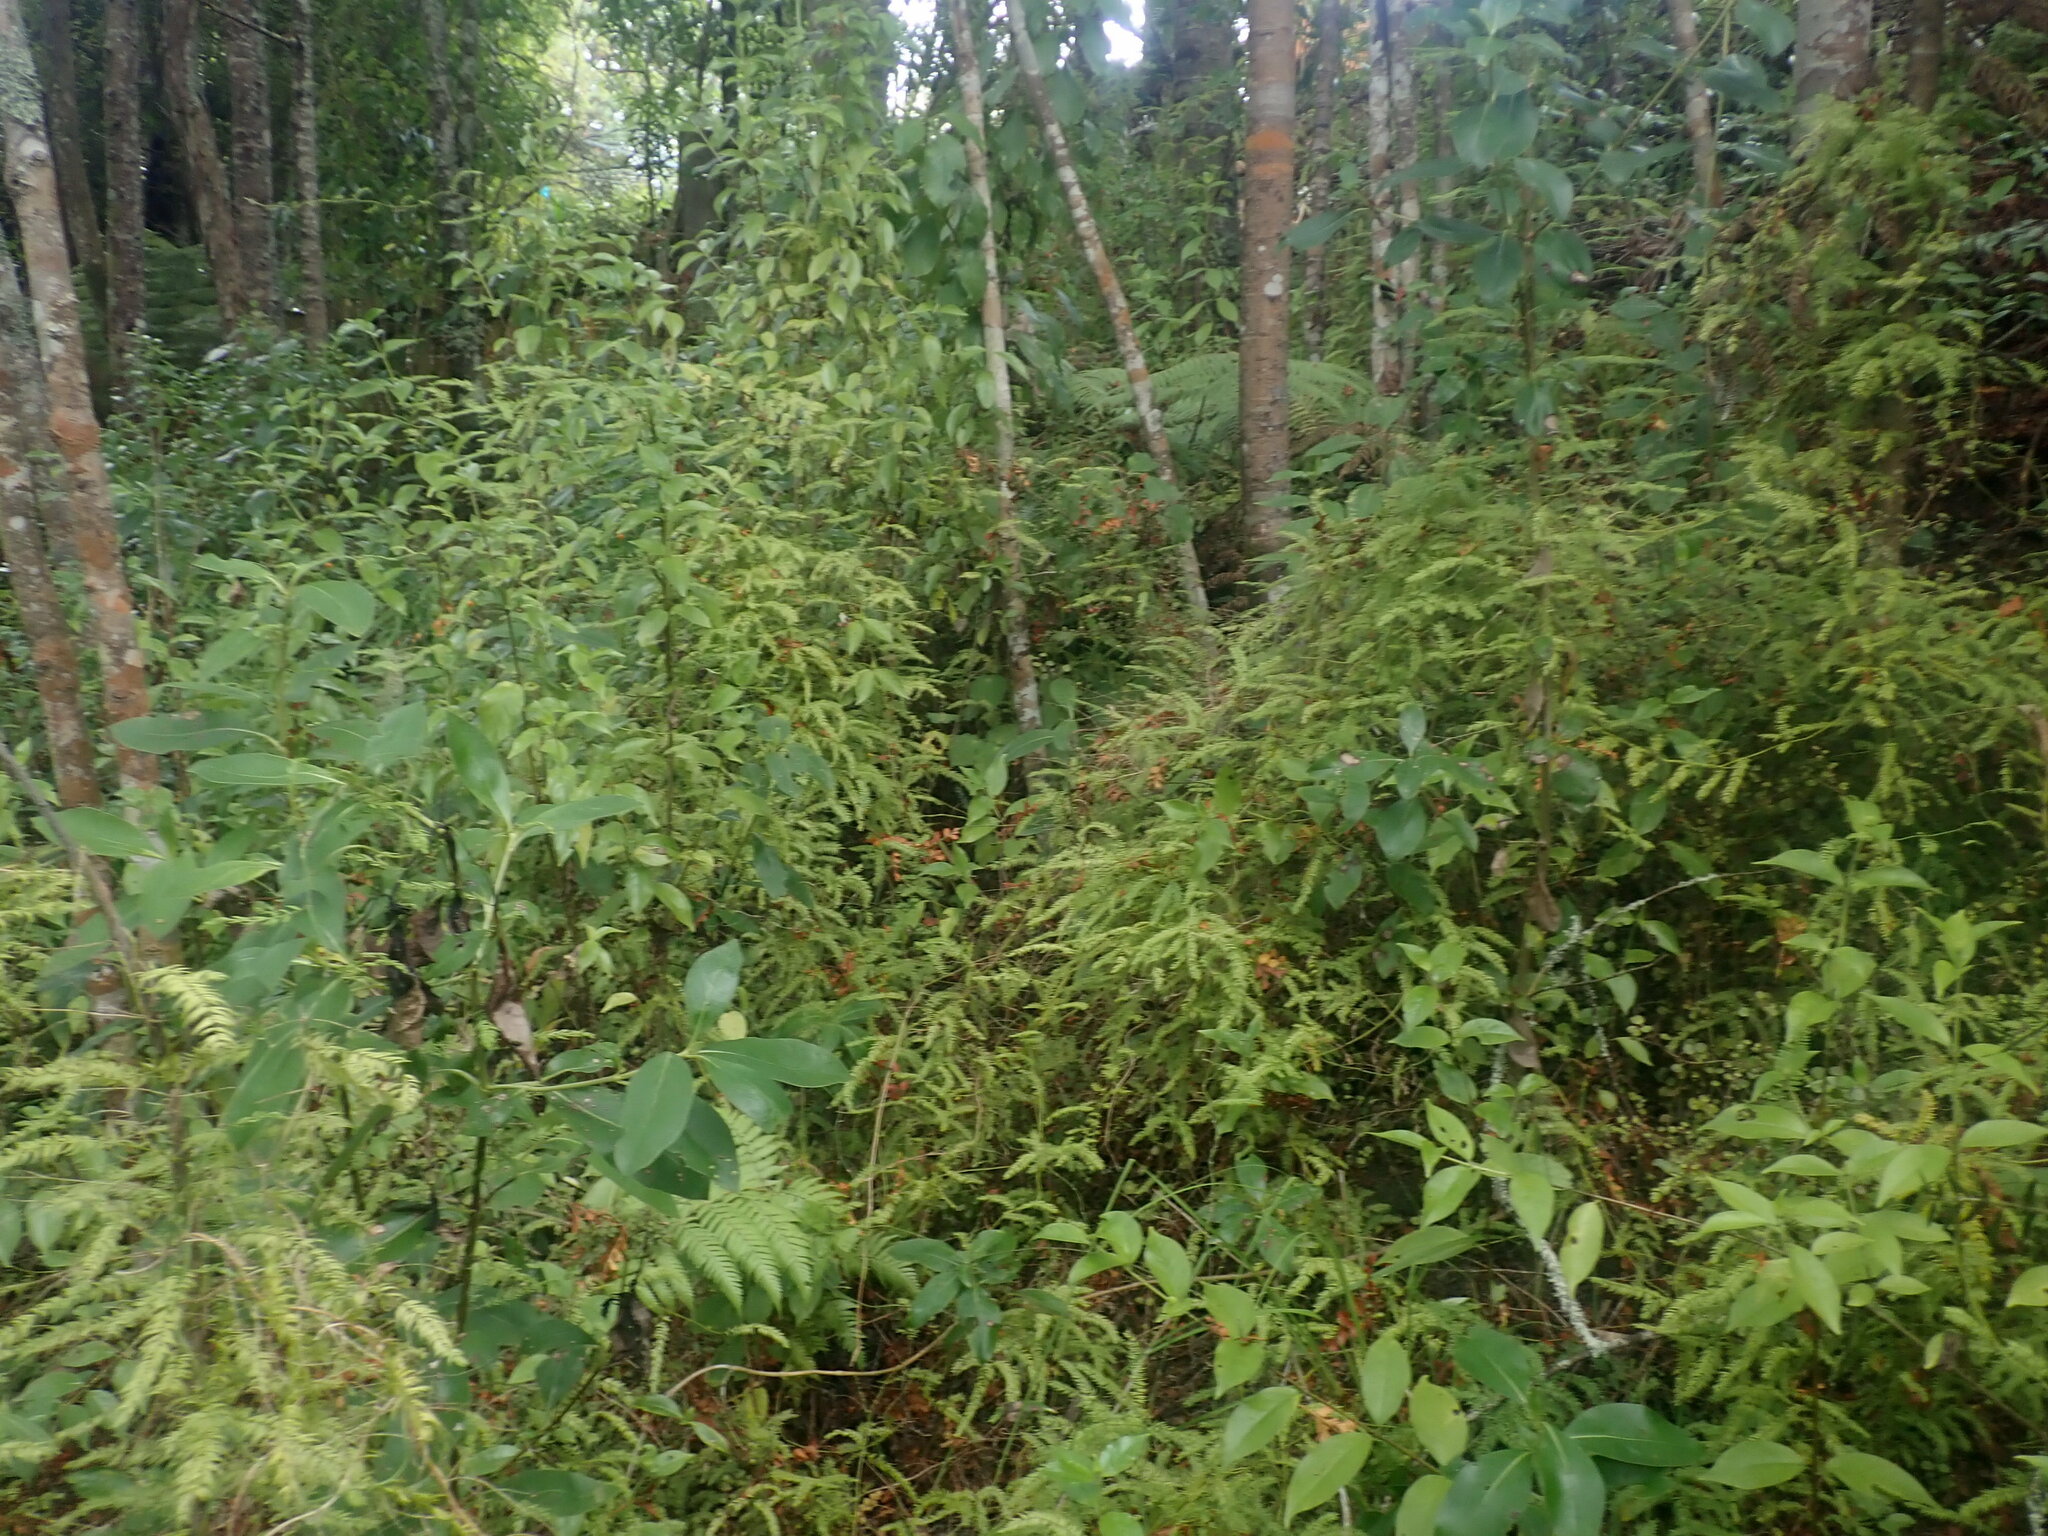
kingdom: Plantae
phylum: Tracheophyta
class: Magnoliopsida
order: Gentianales
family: Rubiaceae
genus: Coprosma
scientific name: Coprosma lucida
